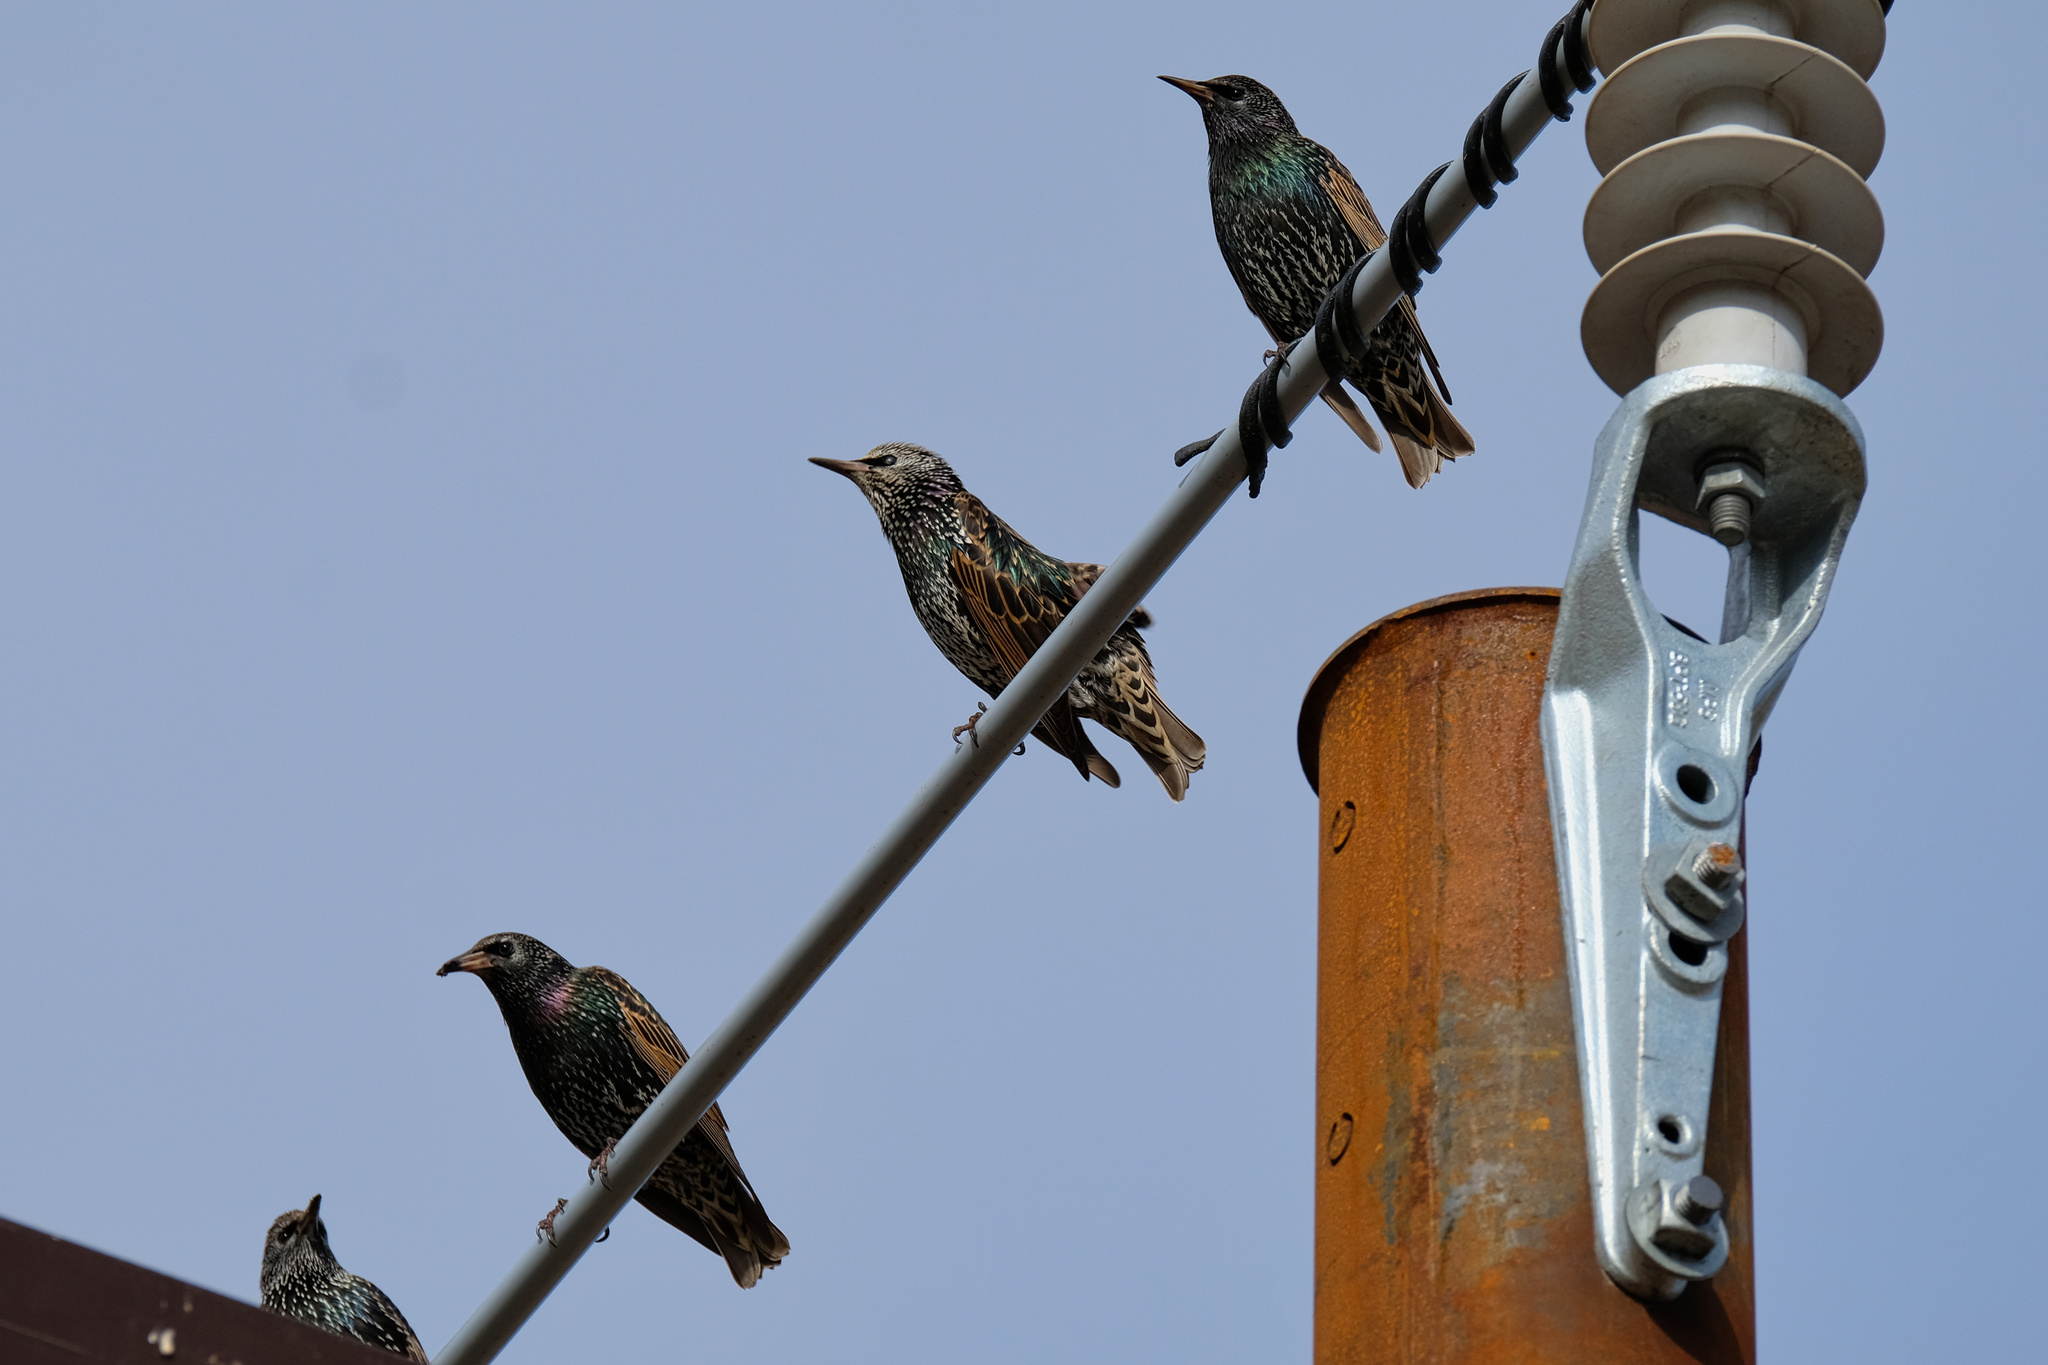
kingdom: Animalia
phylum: Chordata
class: Aves
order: Passeriformes
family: Sturnidae
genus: Sturnus
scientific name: Sturnus vulgaris
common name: Common starling
